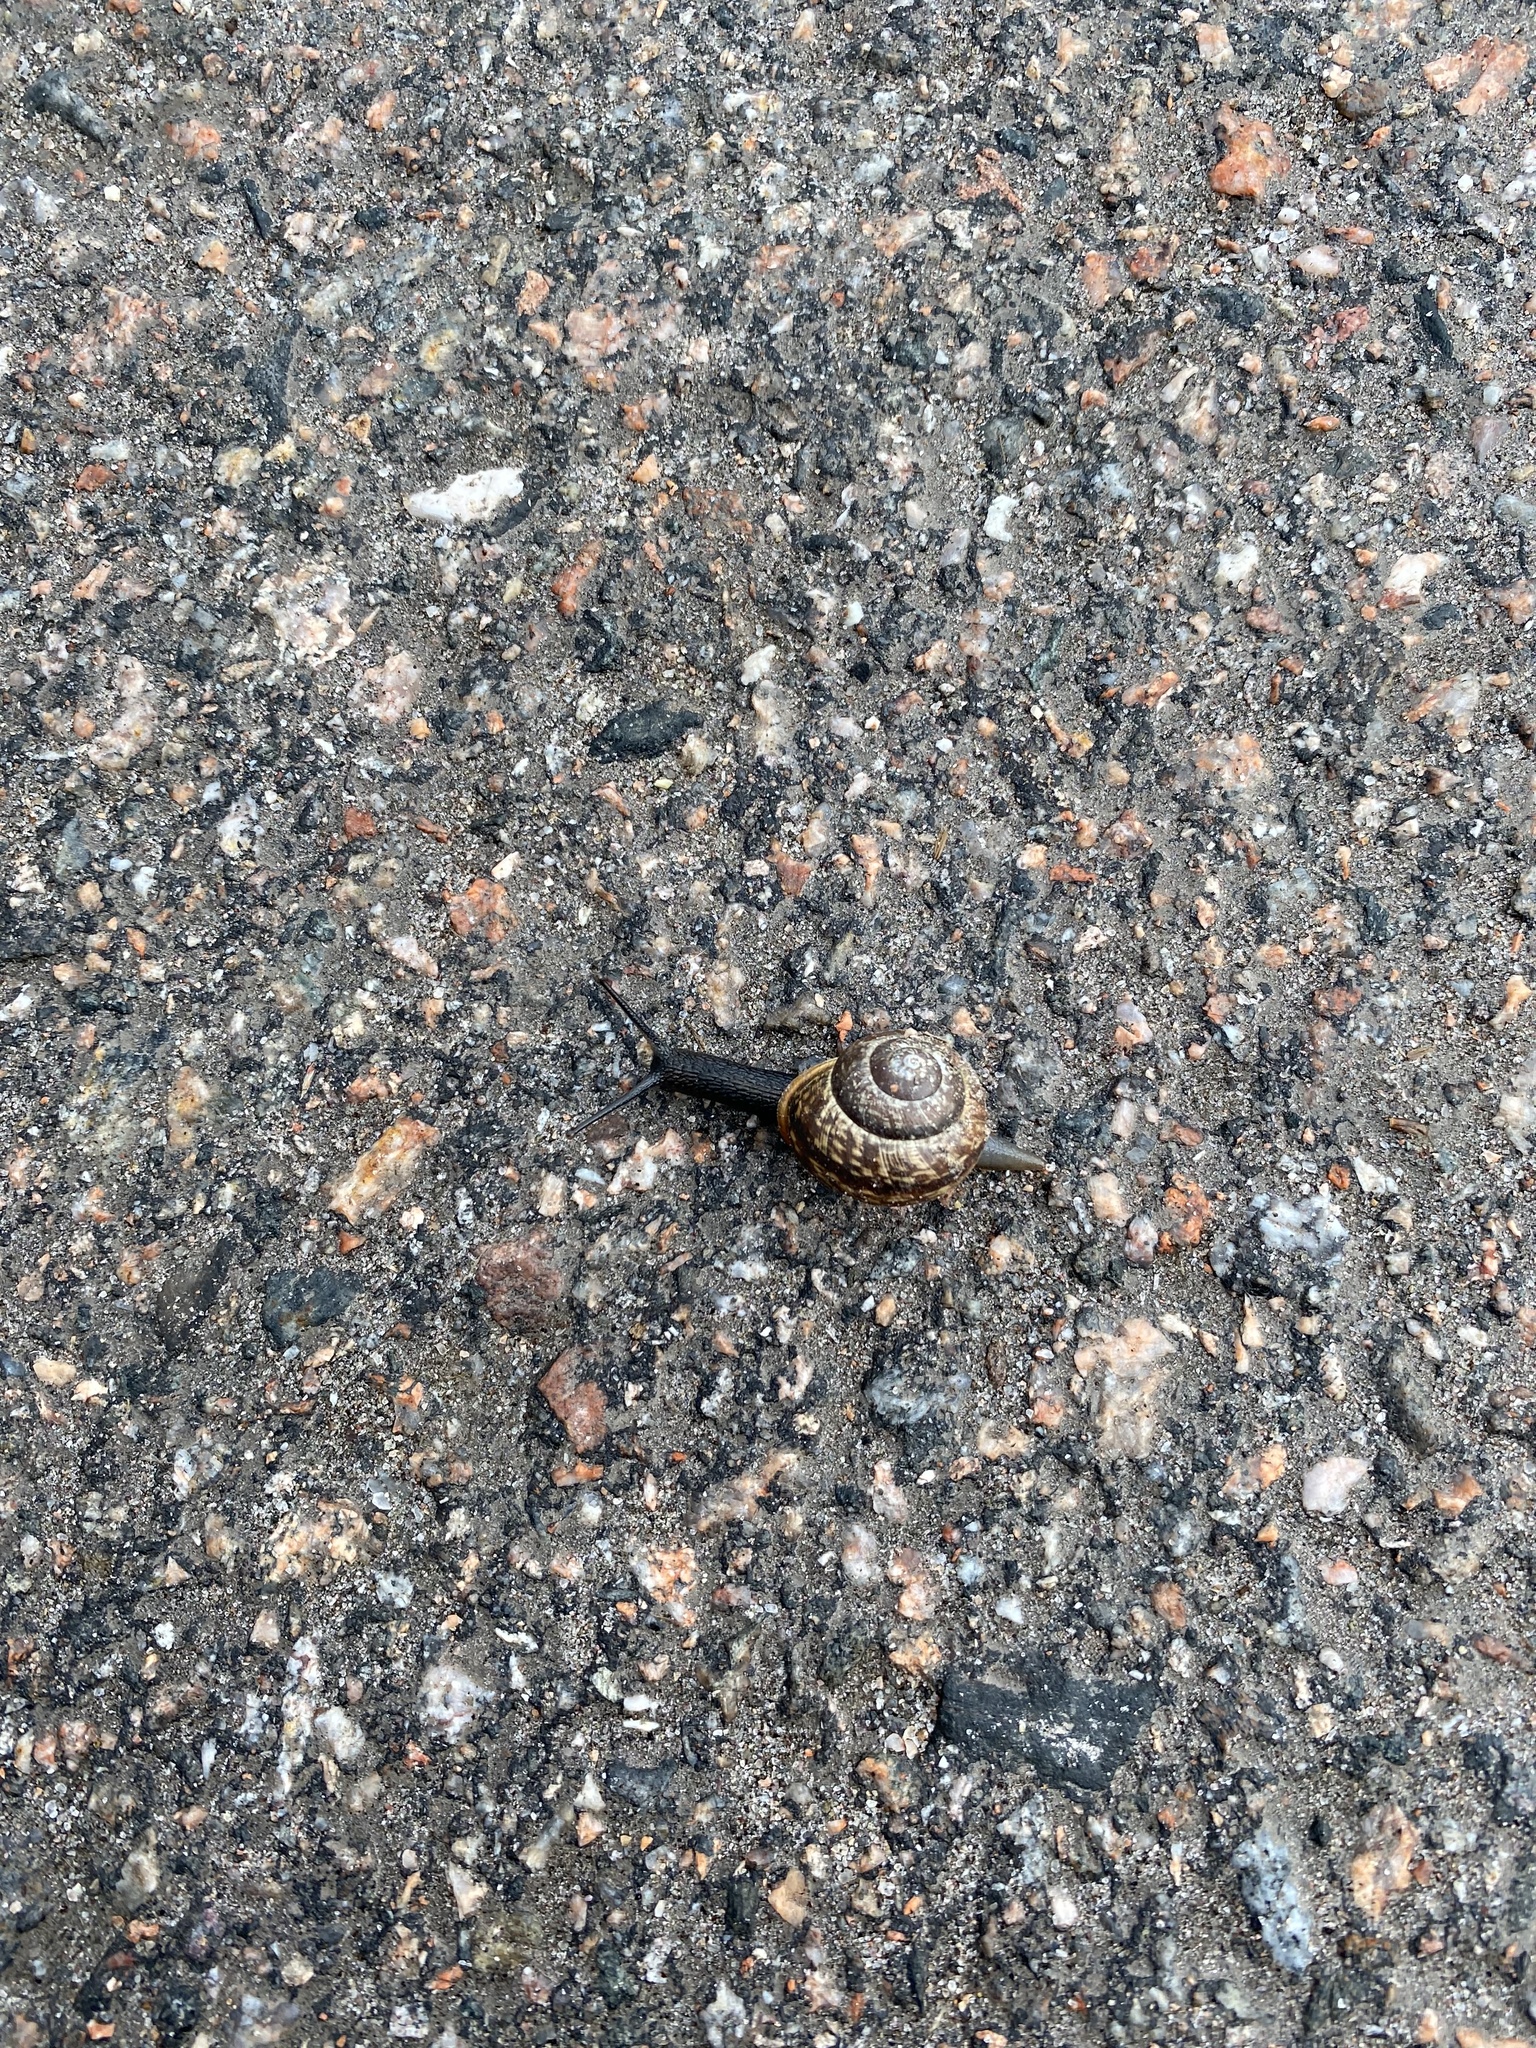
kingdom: Animalia
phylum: Mollusca
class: Gastropoda
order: Stylommatophora
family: Helicidae
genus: Arianta
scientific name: Arianta arbustorum
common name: Copse snail
